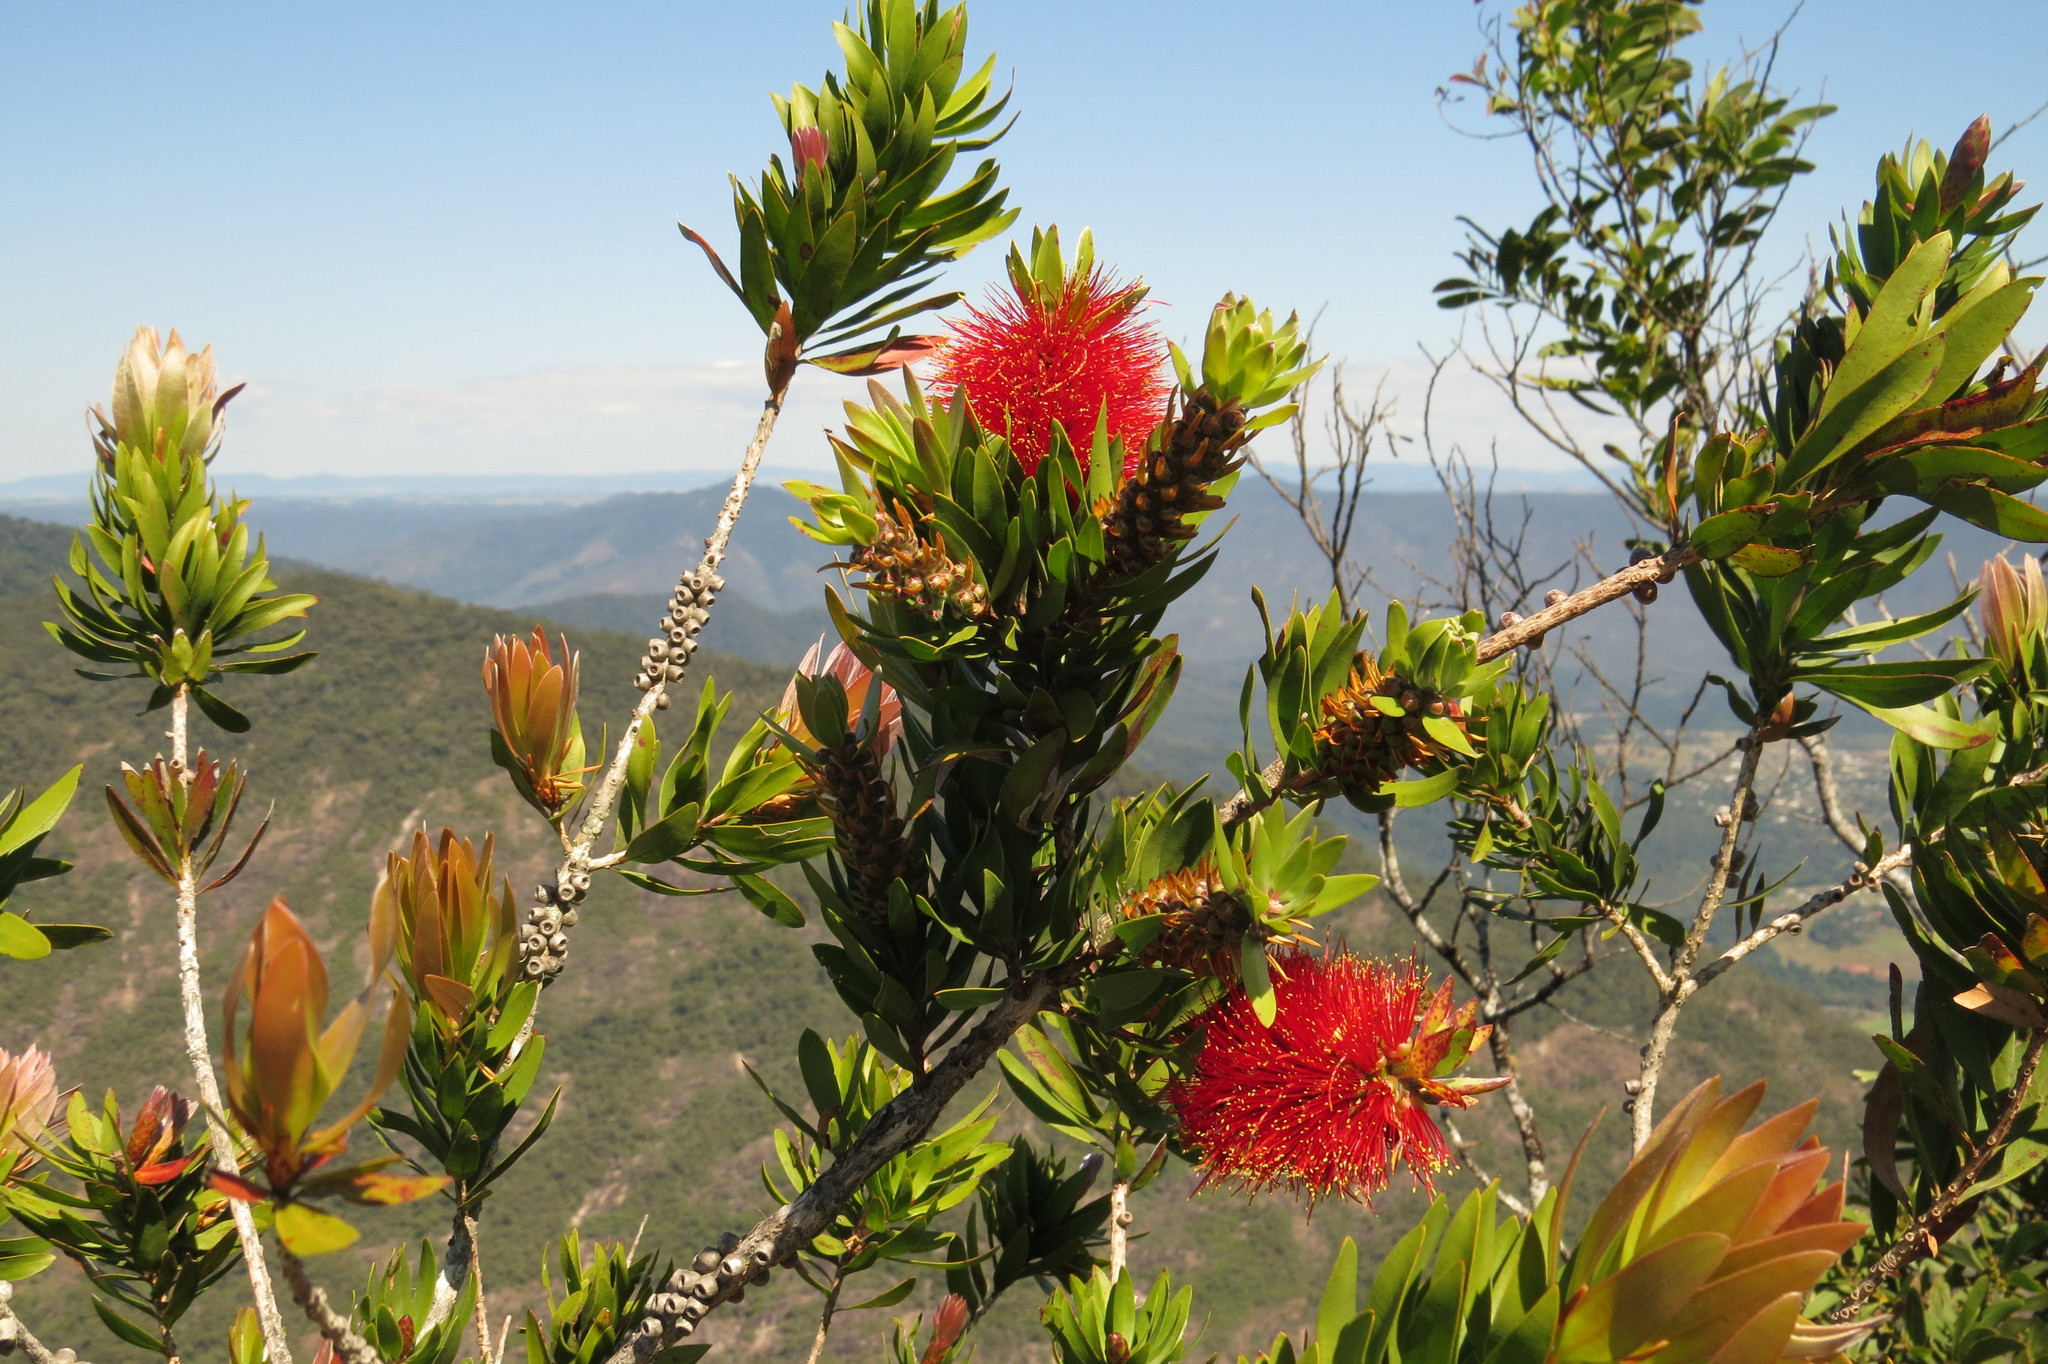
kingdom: Plantae
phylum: Tracheophyta
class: Magnoliopsida
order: Myrtales
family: Myrtaceae
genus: Callistemon
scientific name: Callistemon pyramidalis
